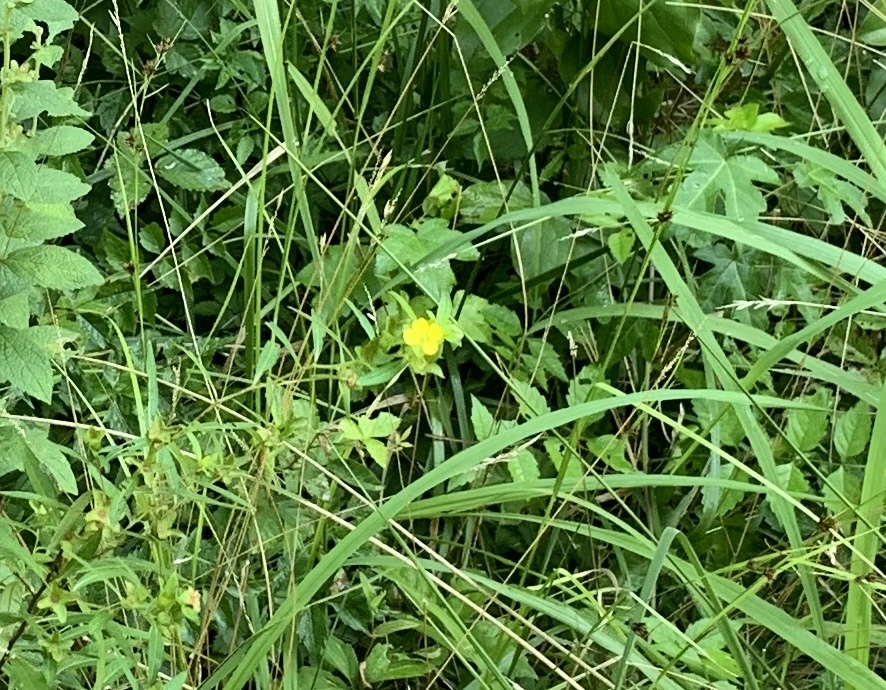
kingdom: Plantae
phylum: Tracheophyta
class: Magnoliopsida
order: Myrtales
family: Onagraceae
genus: Ludwigia
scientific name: Ludwigia alternifolia
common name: Rattlebox
